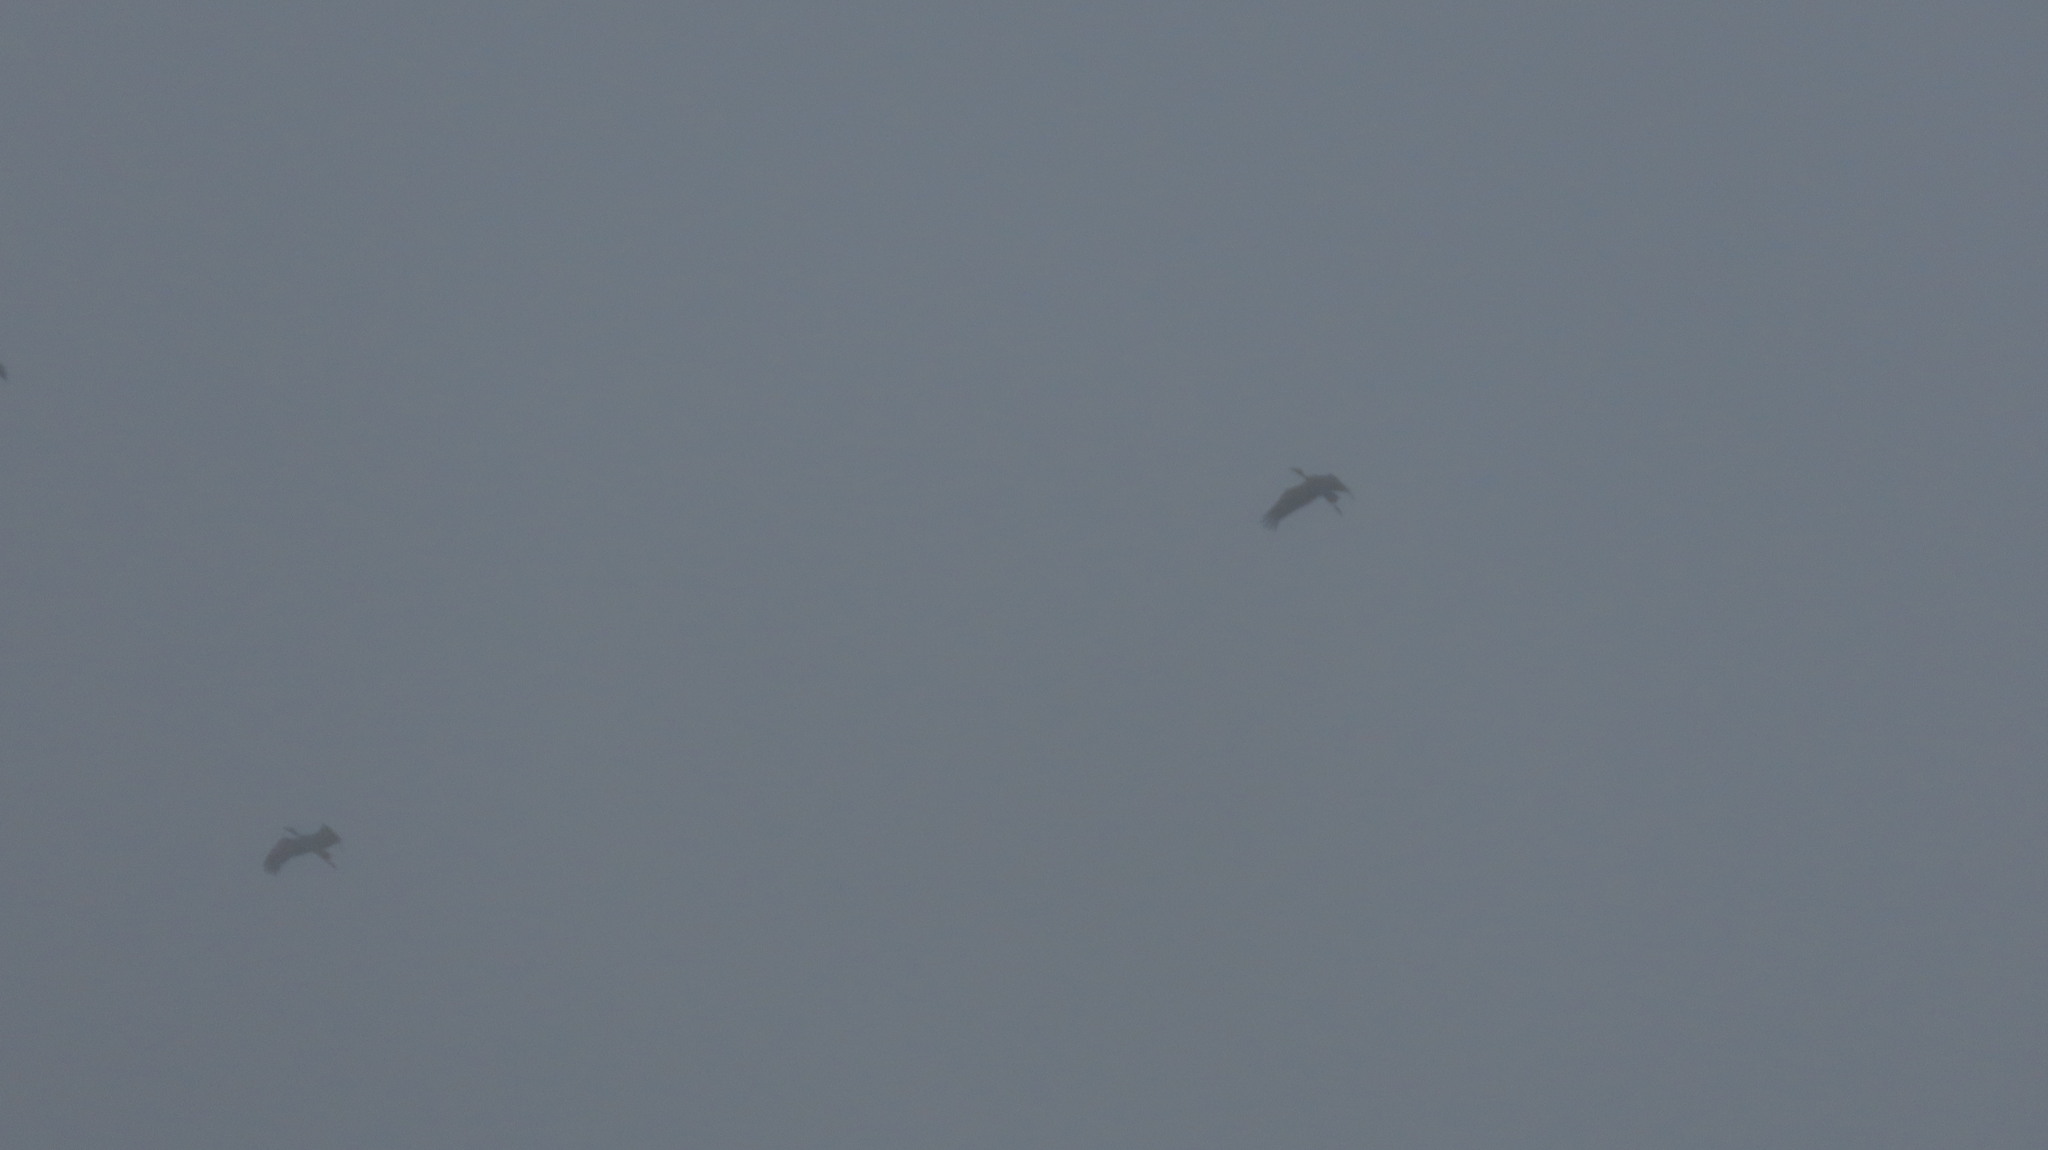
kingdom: Animalia
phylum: Chordata
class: Aves
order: Ciconiiformes
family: Ciconiidae
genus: Anastomus
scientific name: Anastomus oscitans
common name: Asian openbill
